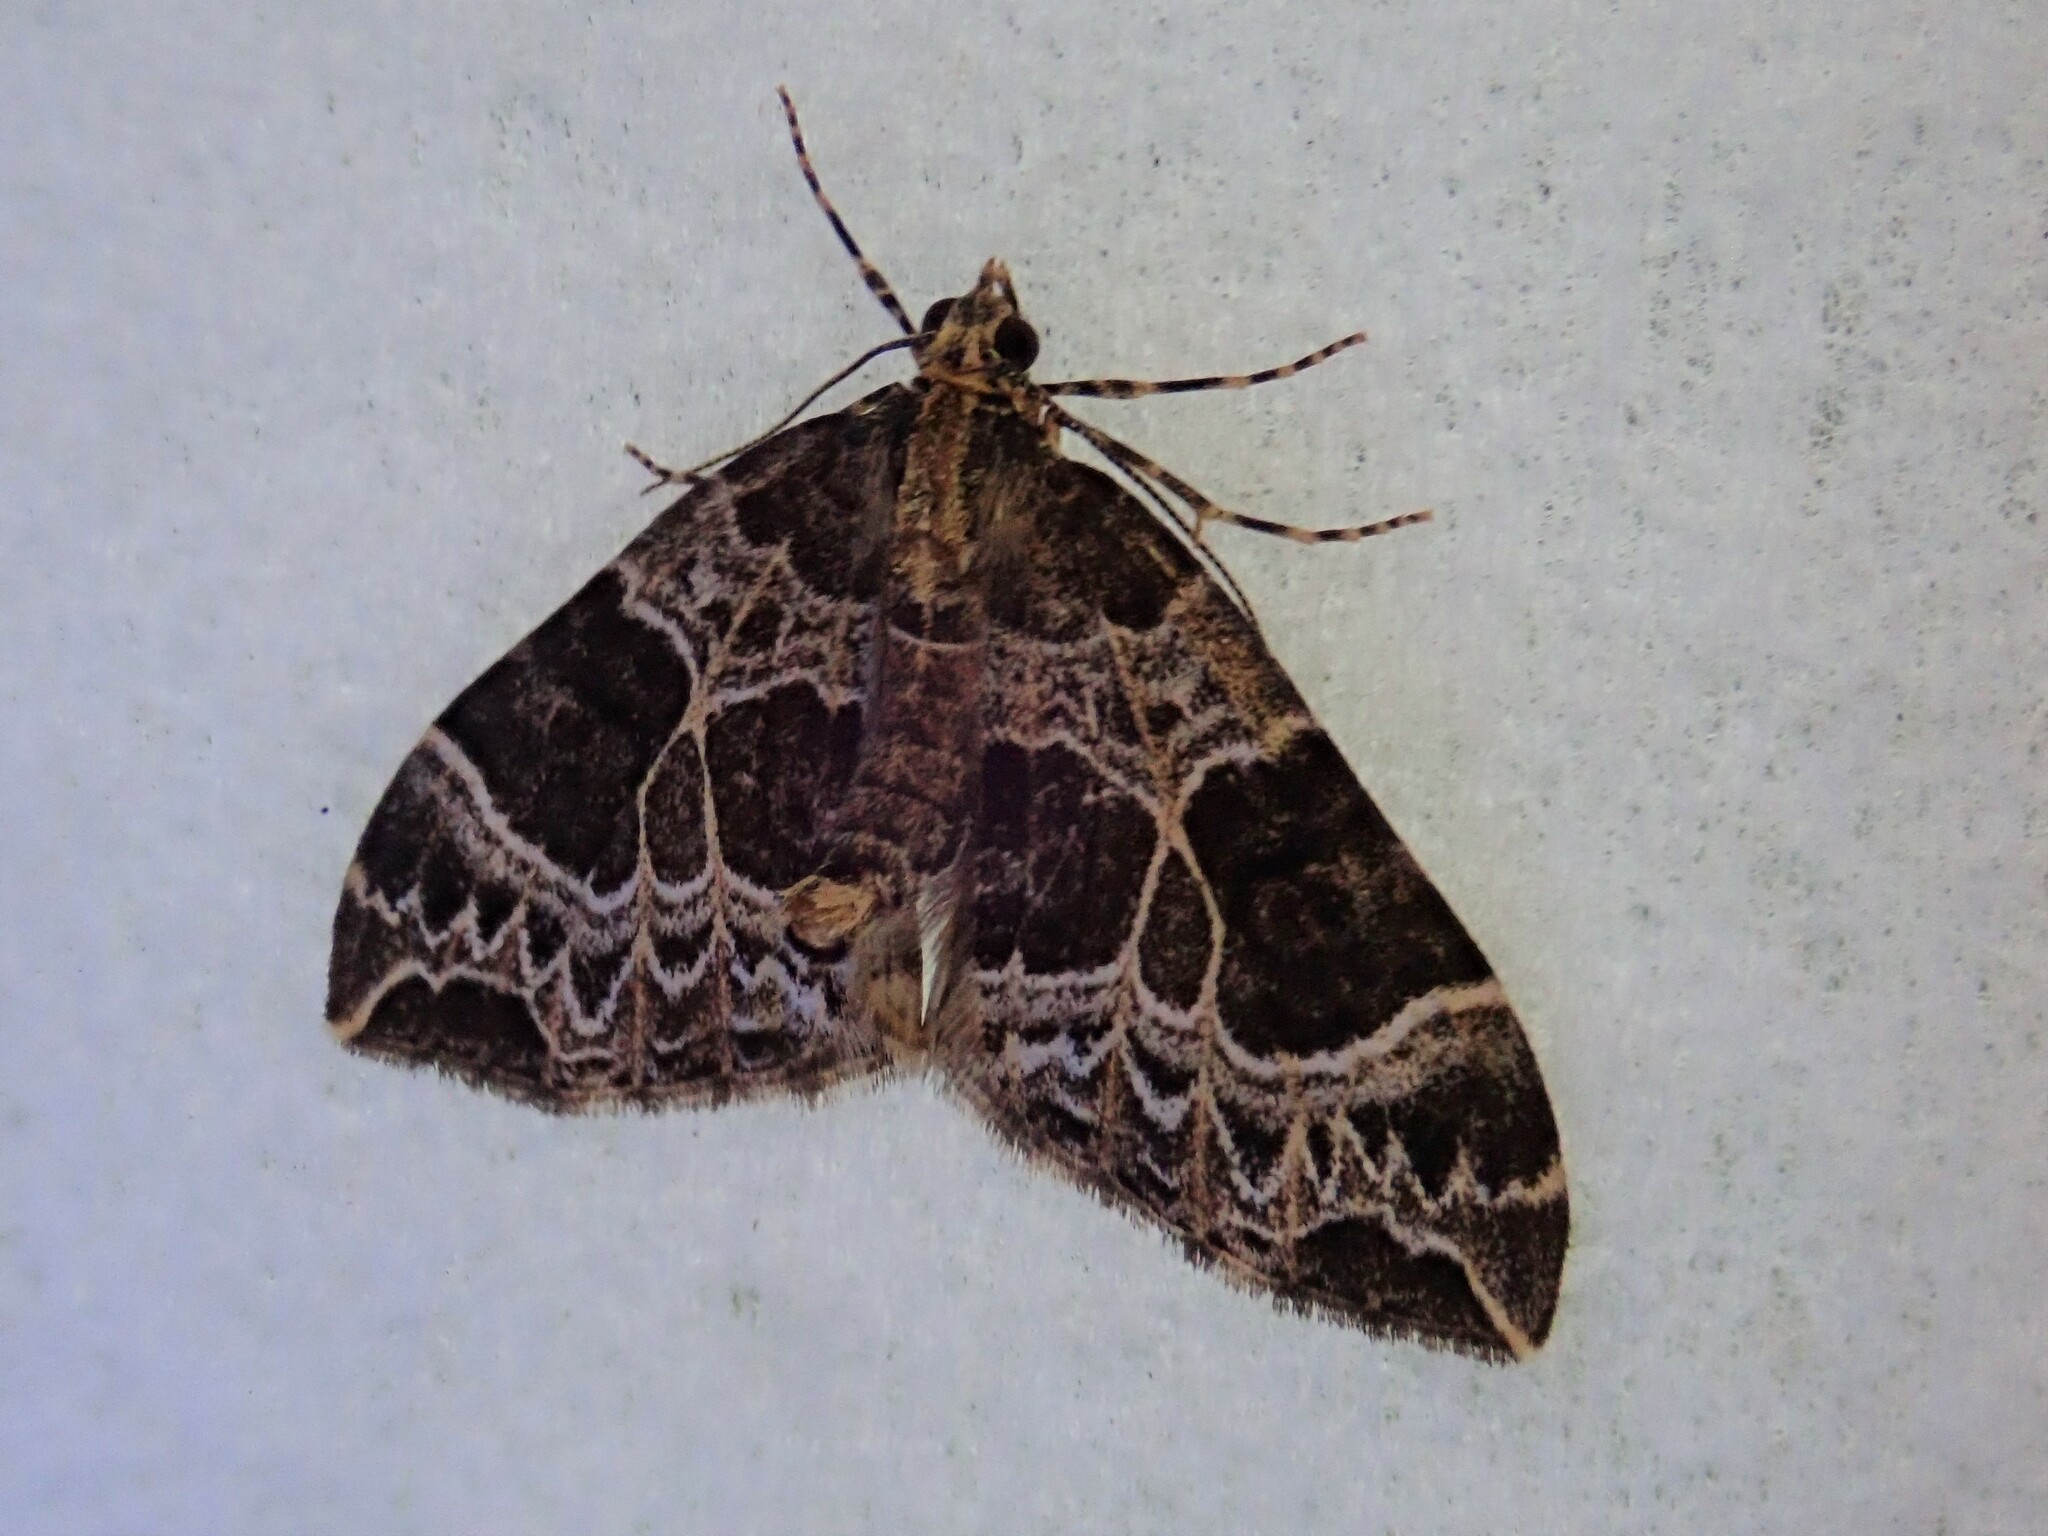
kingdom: Animalia
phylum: Arthropoda
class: Insecta
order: Lepidoptera
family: Geometridae
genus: Ecliptopera
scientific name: Ecliptopera silaceata
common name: Small phoenix
